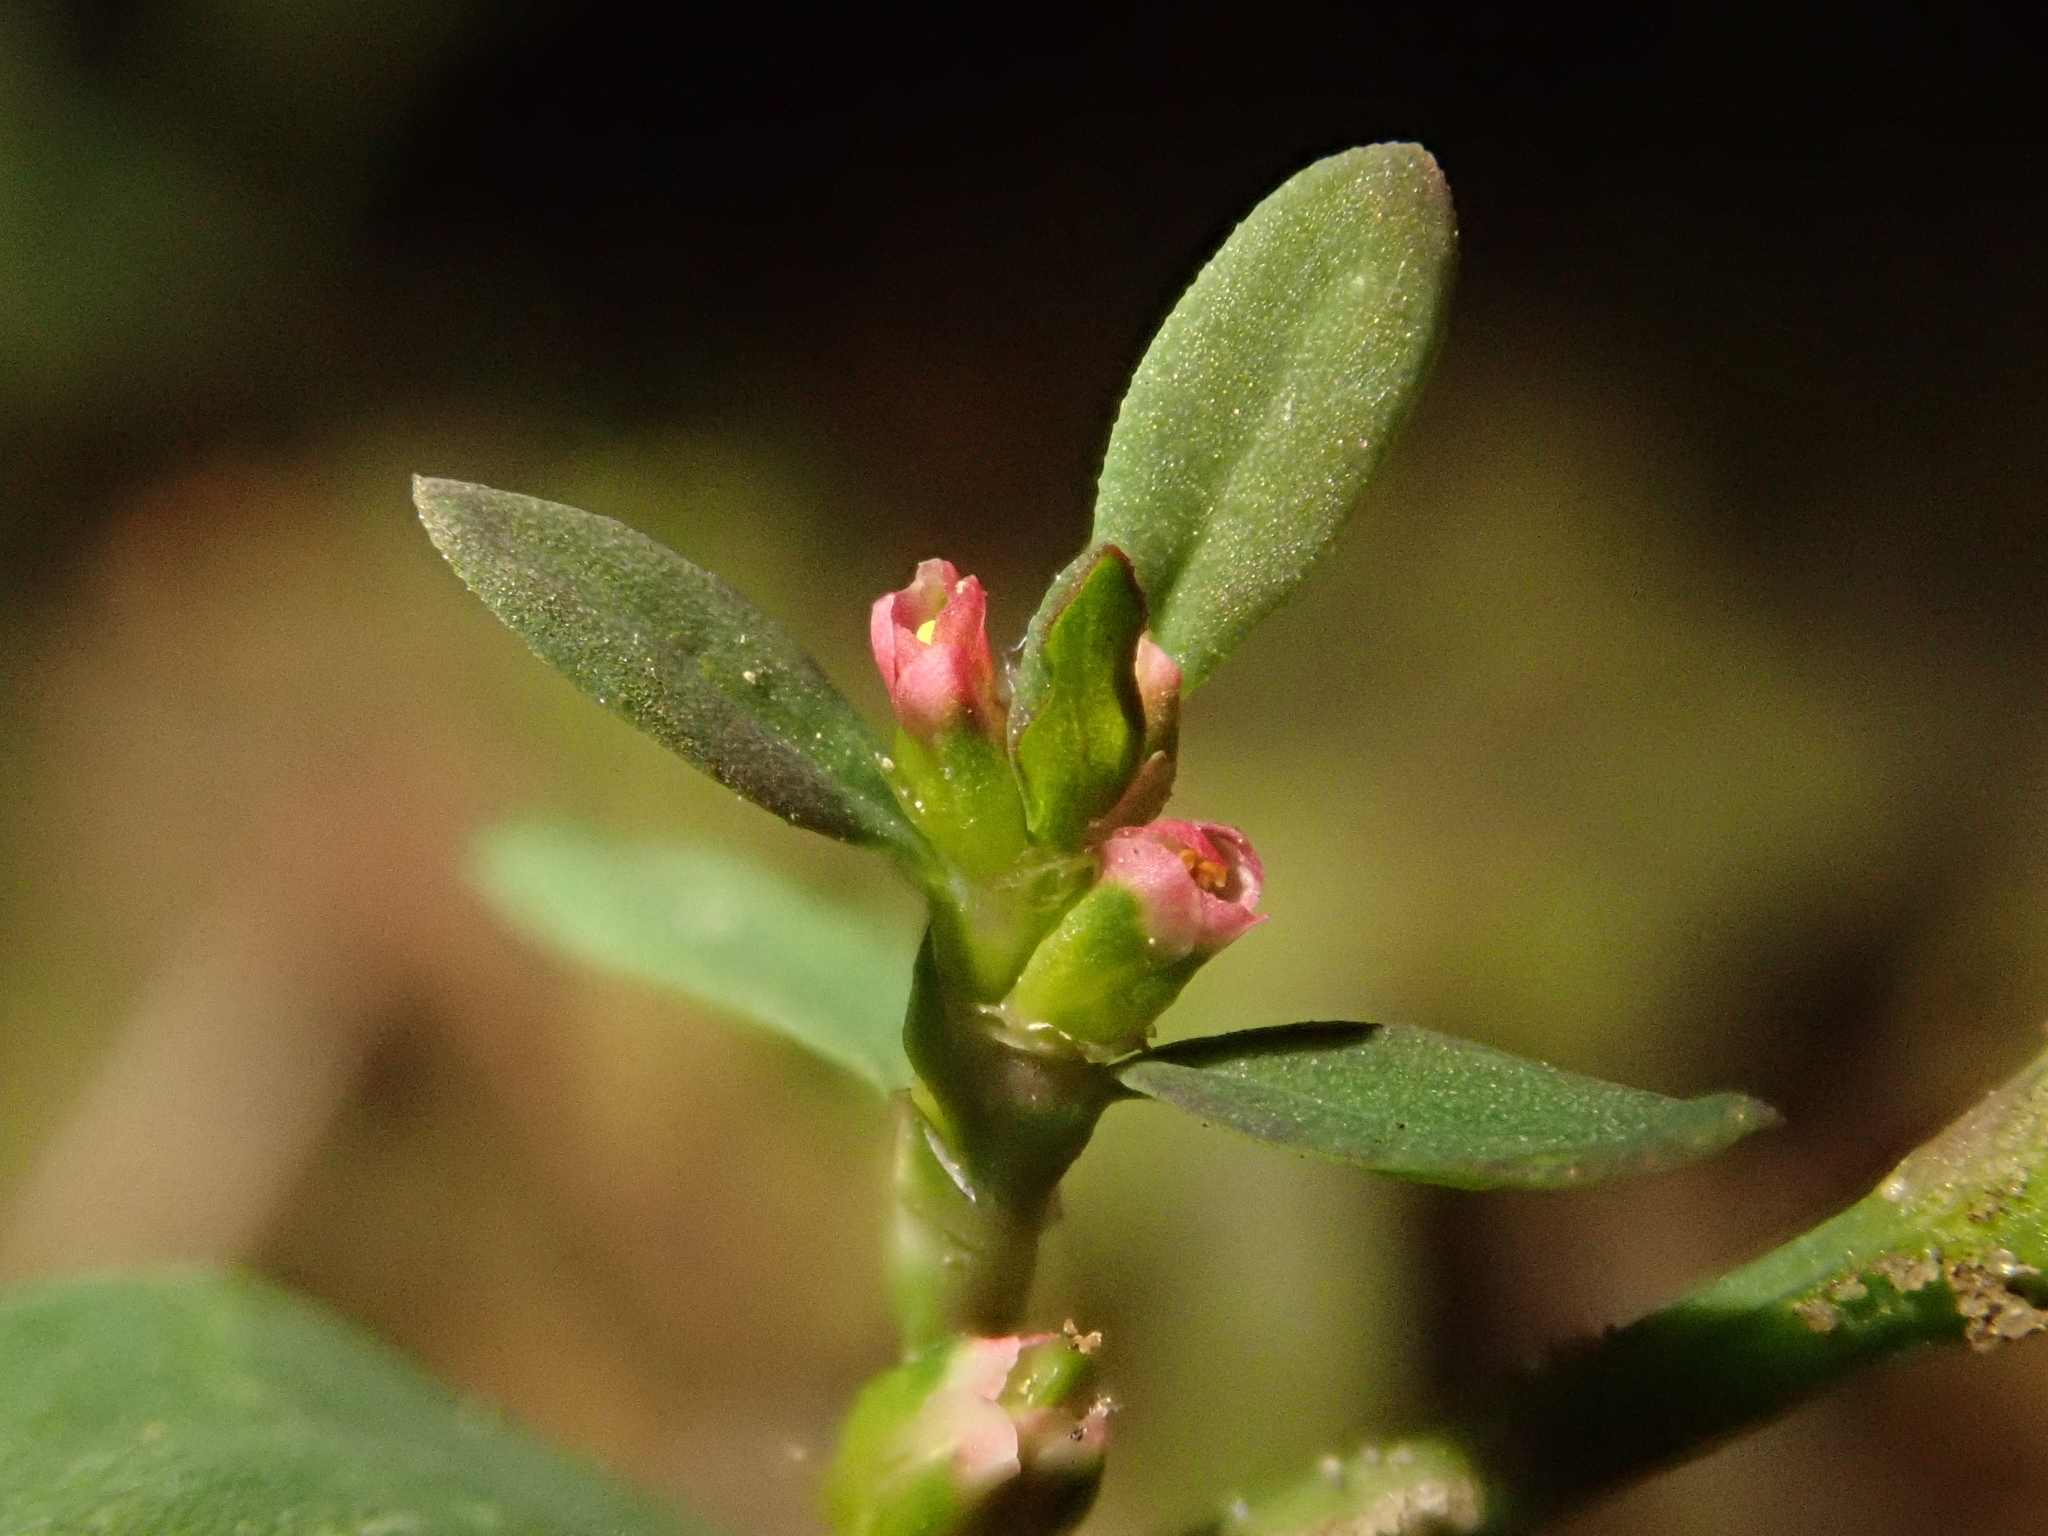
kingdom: Plantae
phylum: Tracheophyta
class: Magnoliopsida
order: Caryophyllales
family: Polygonaceae
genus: Polygonum
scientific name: Polygonum aviculare
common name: Prostrate knotweed
